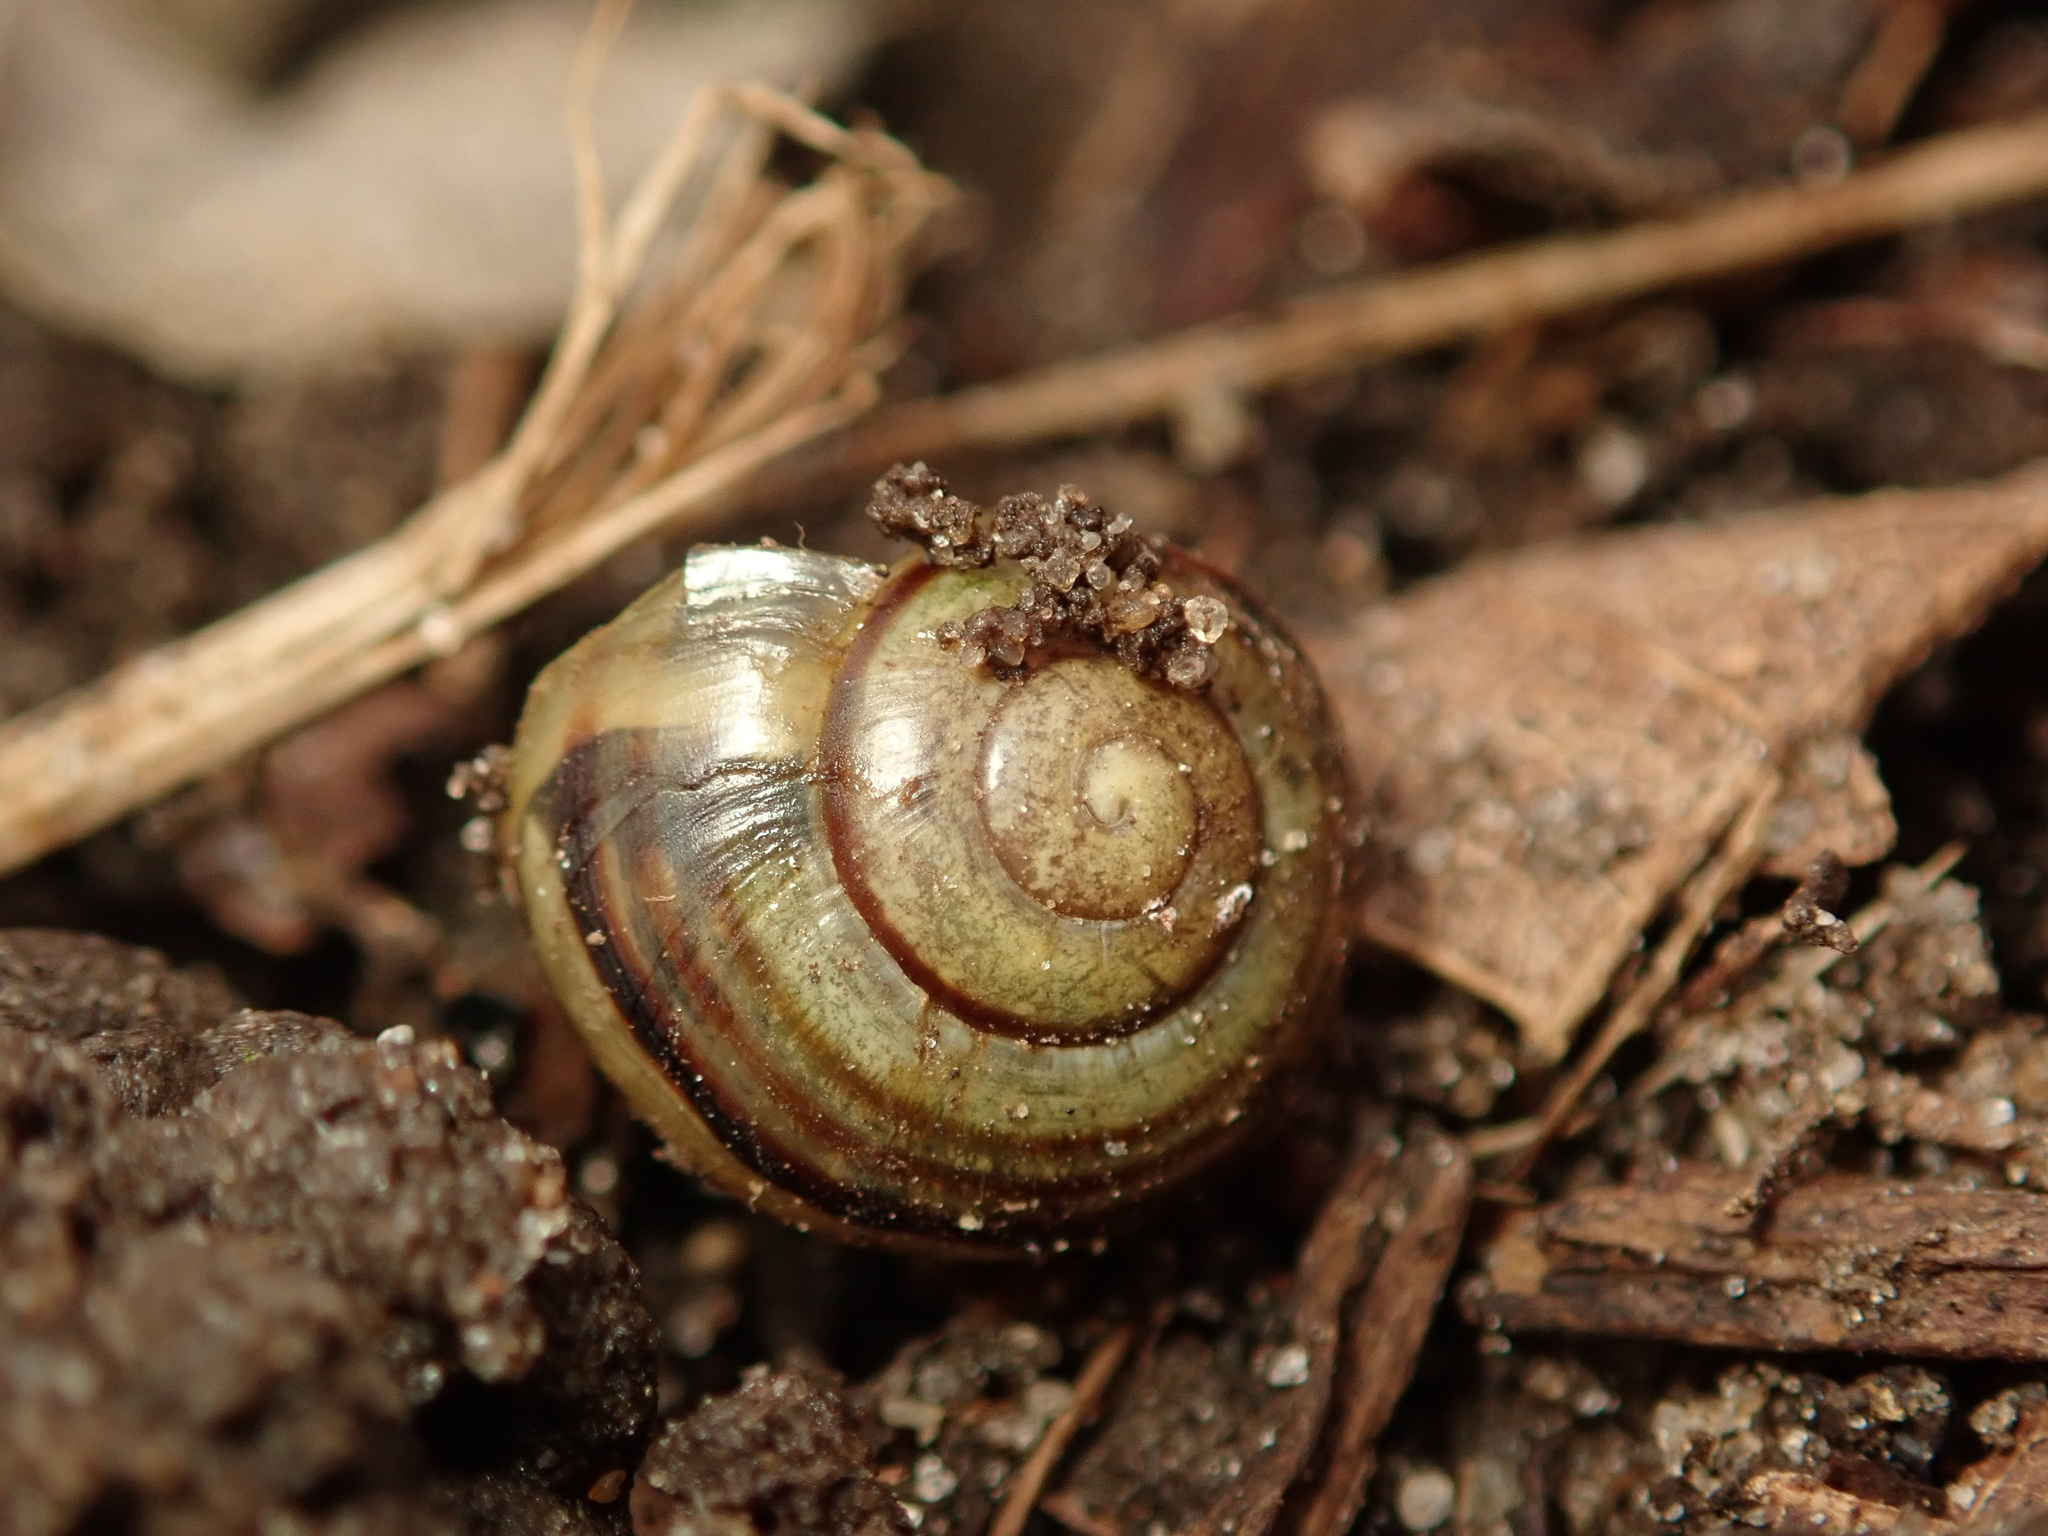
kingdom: Animalia
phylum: Mollusca
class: Gastropoda
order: Stylommatophora
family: Helicidae
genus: Cepaea
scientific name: Cepaea
